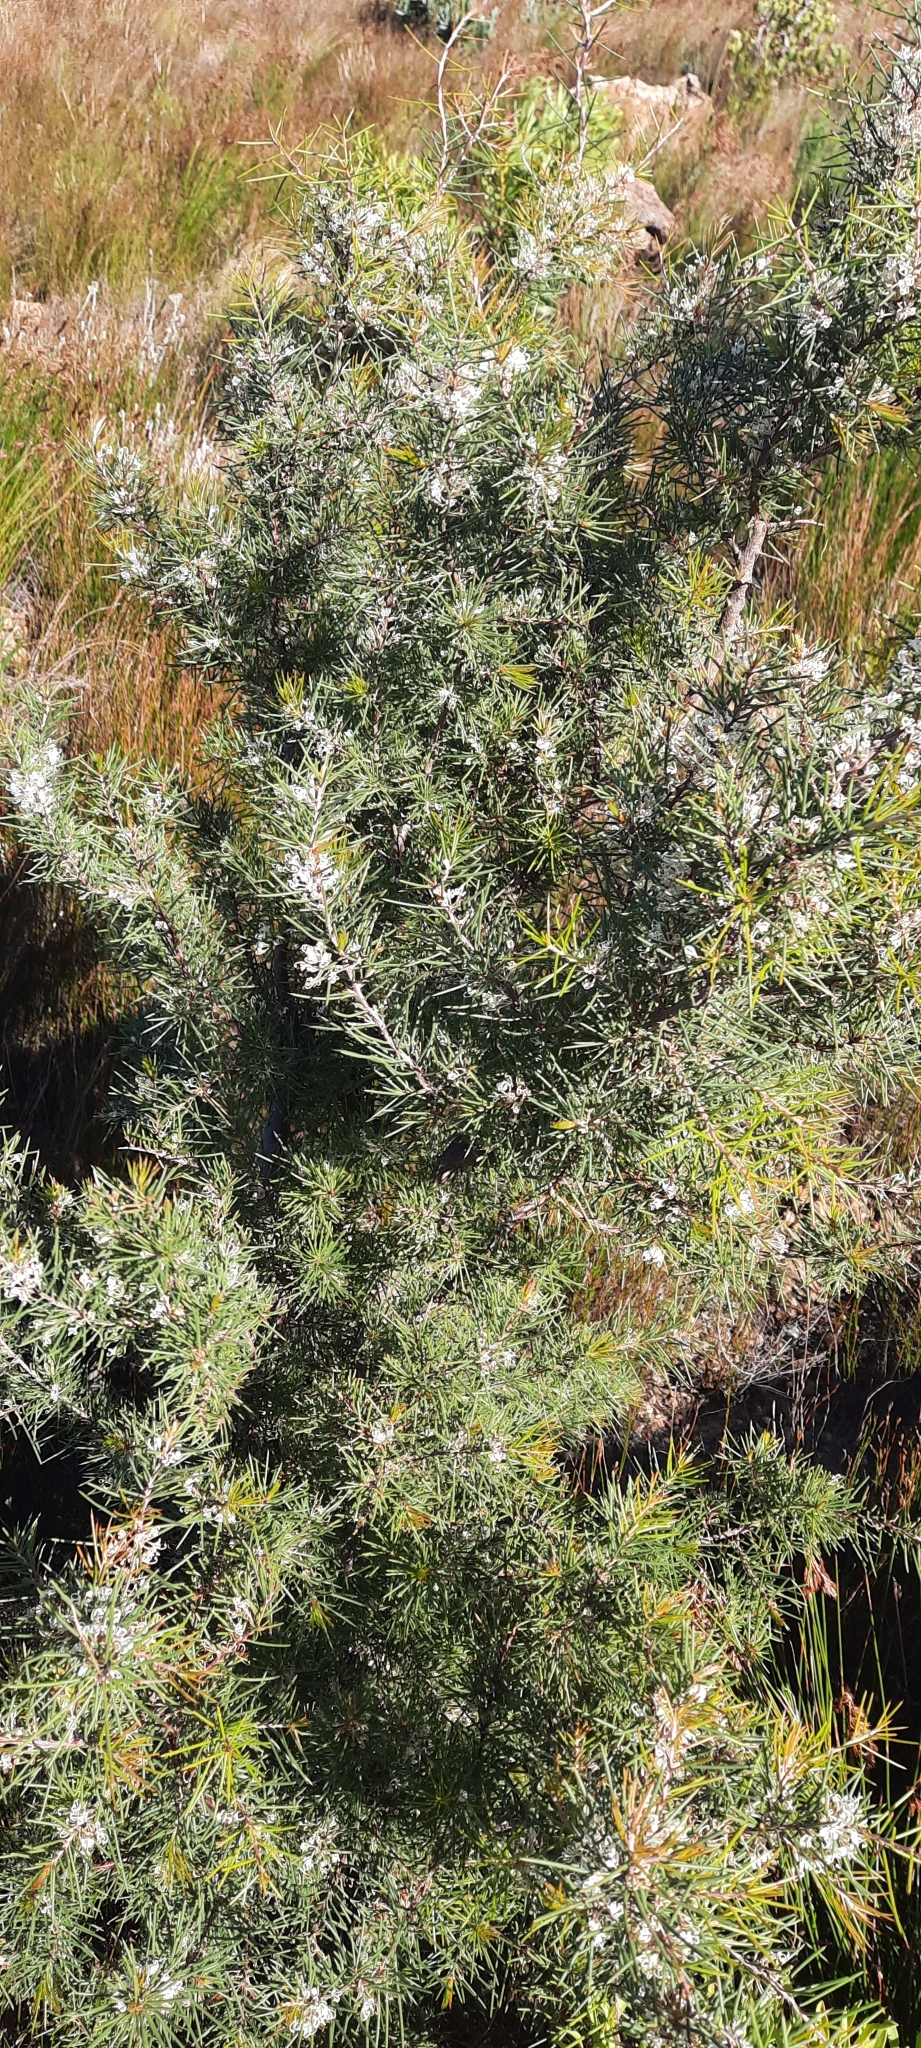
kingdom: Plantae
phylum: Tracheophyta
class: Magnoliopsida
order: Proteales
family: Proteaceae
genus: Hakea
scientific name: Hakea sericea
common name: Needle bush
